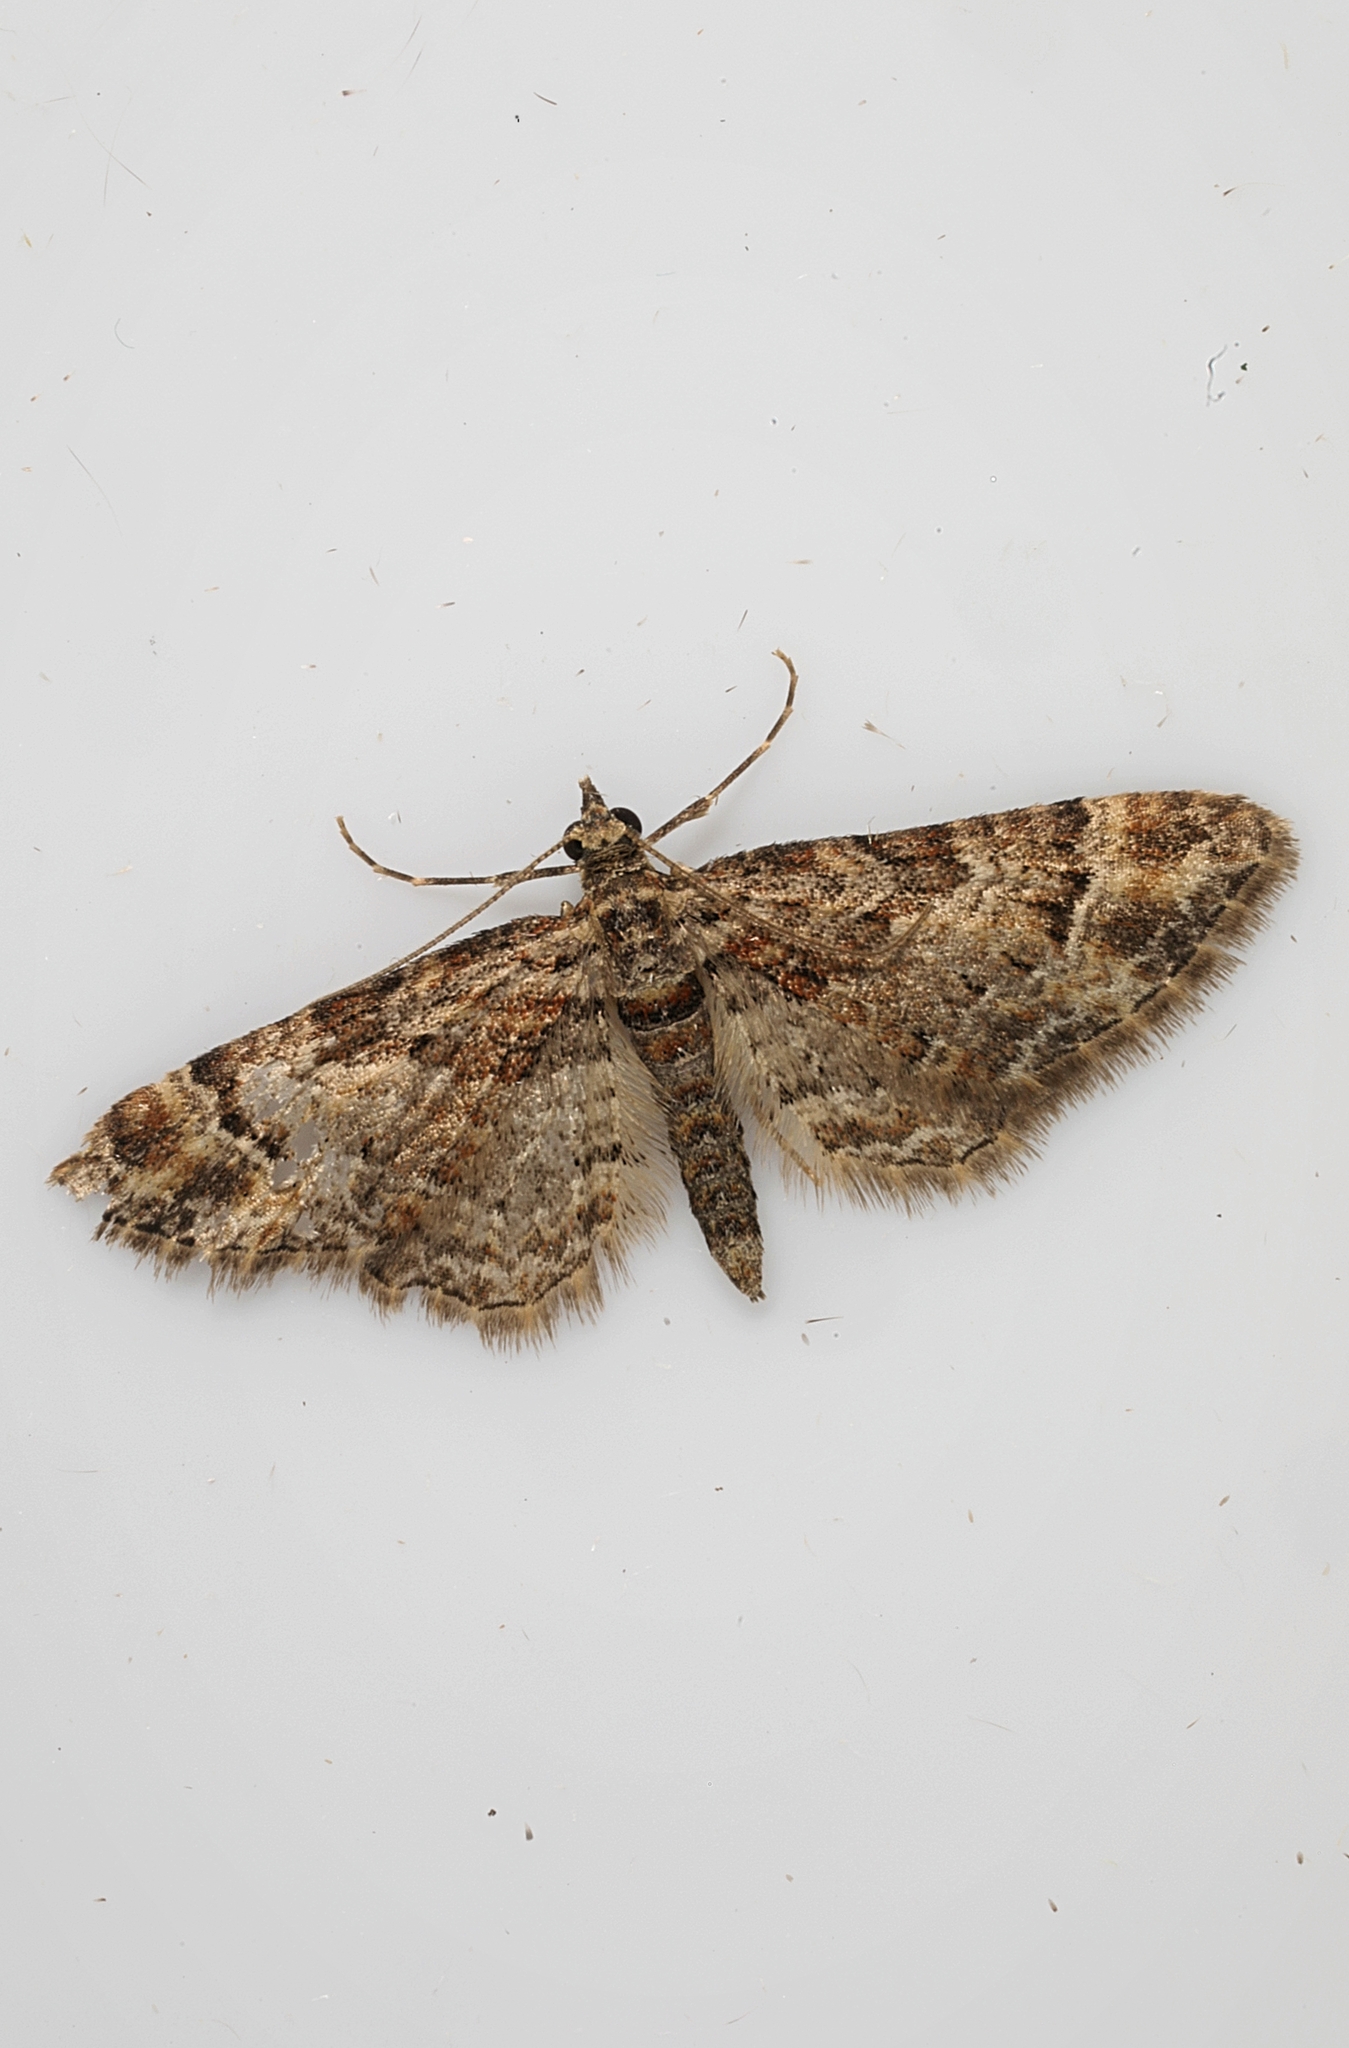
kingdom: Animalia
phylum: Arthropoda
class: Insecta
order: Lepidoptera
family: Geometridae
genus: Gymnoscelis
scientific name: Gymnoscelis rufifasciata
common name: Double-striped pug
